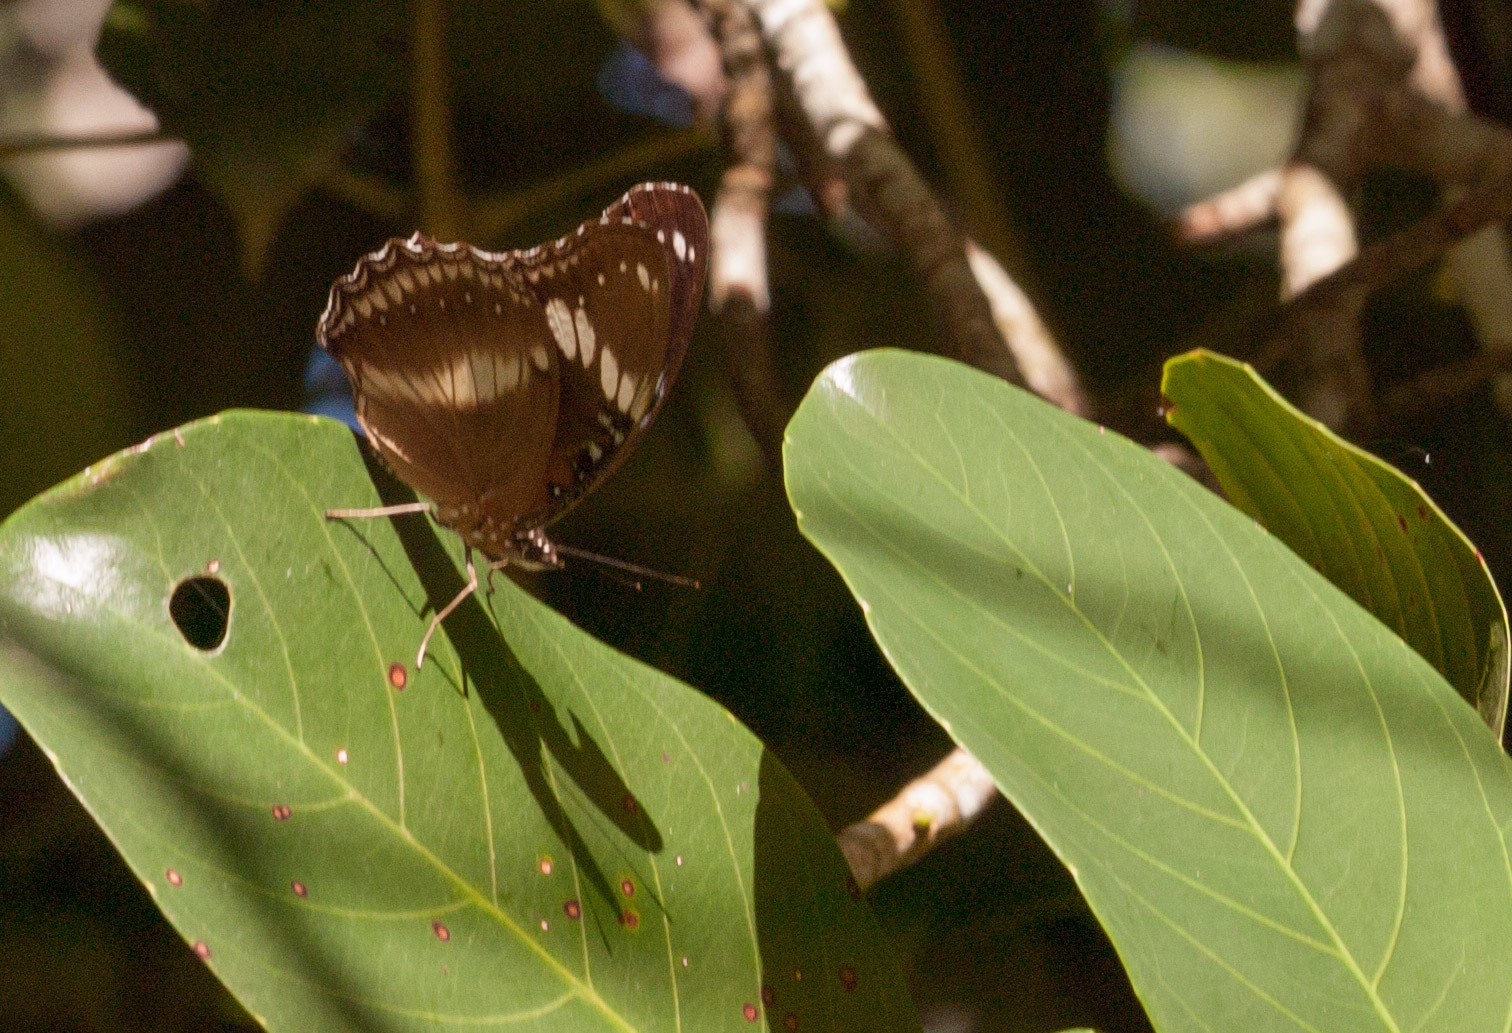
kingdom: Animalia
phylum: Arthropoda
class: Insecta
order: Lepidoptera
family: Nymphalidae
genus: Hypolimnas
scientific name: Hypolimnas bolina
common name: Great eggfly
